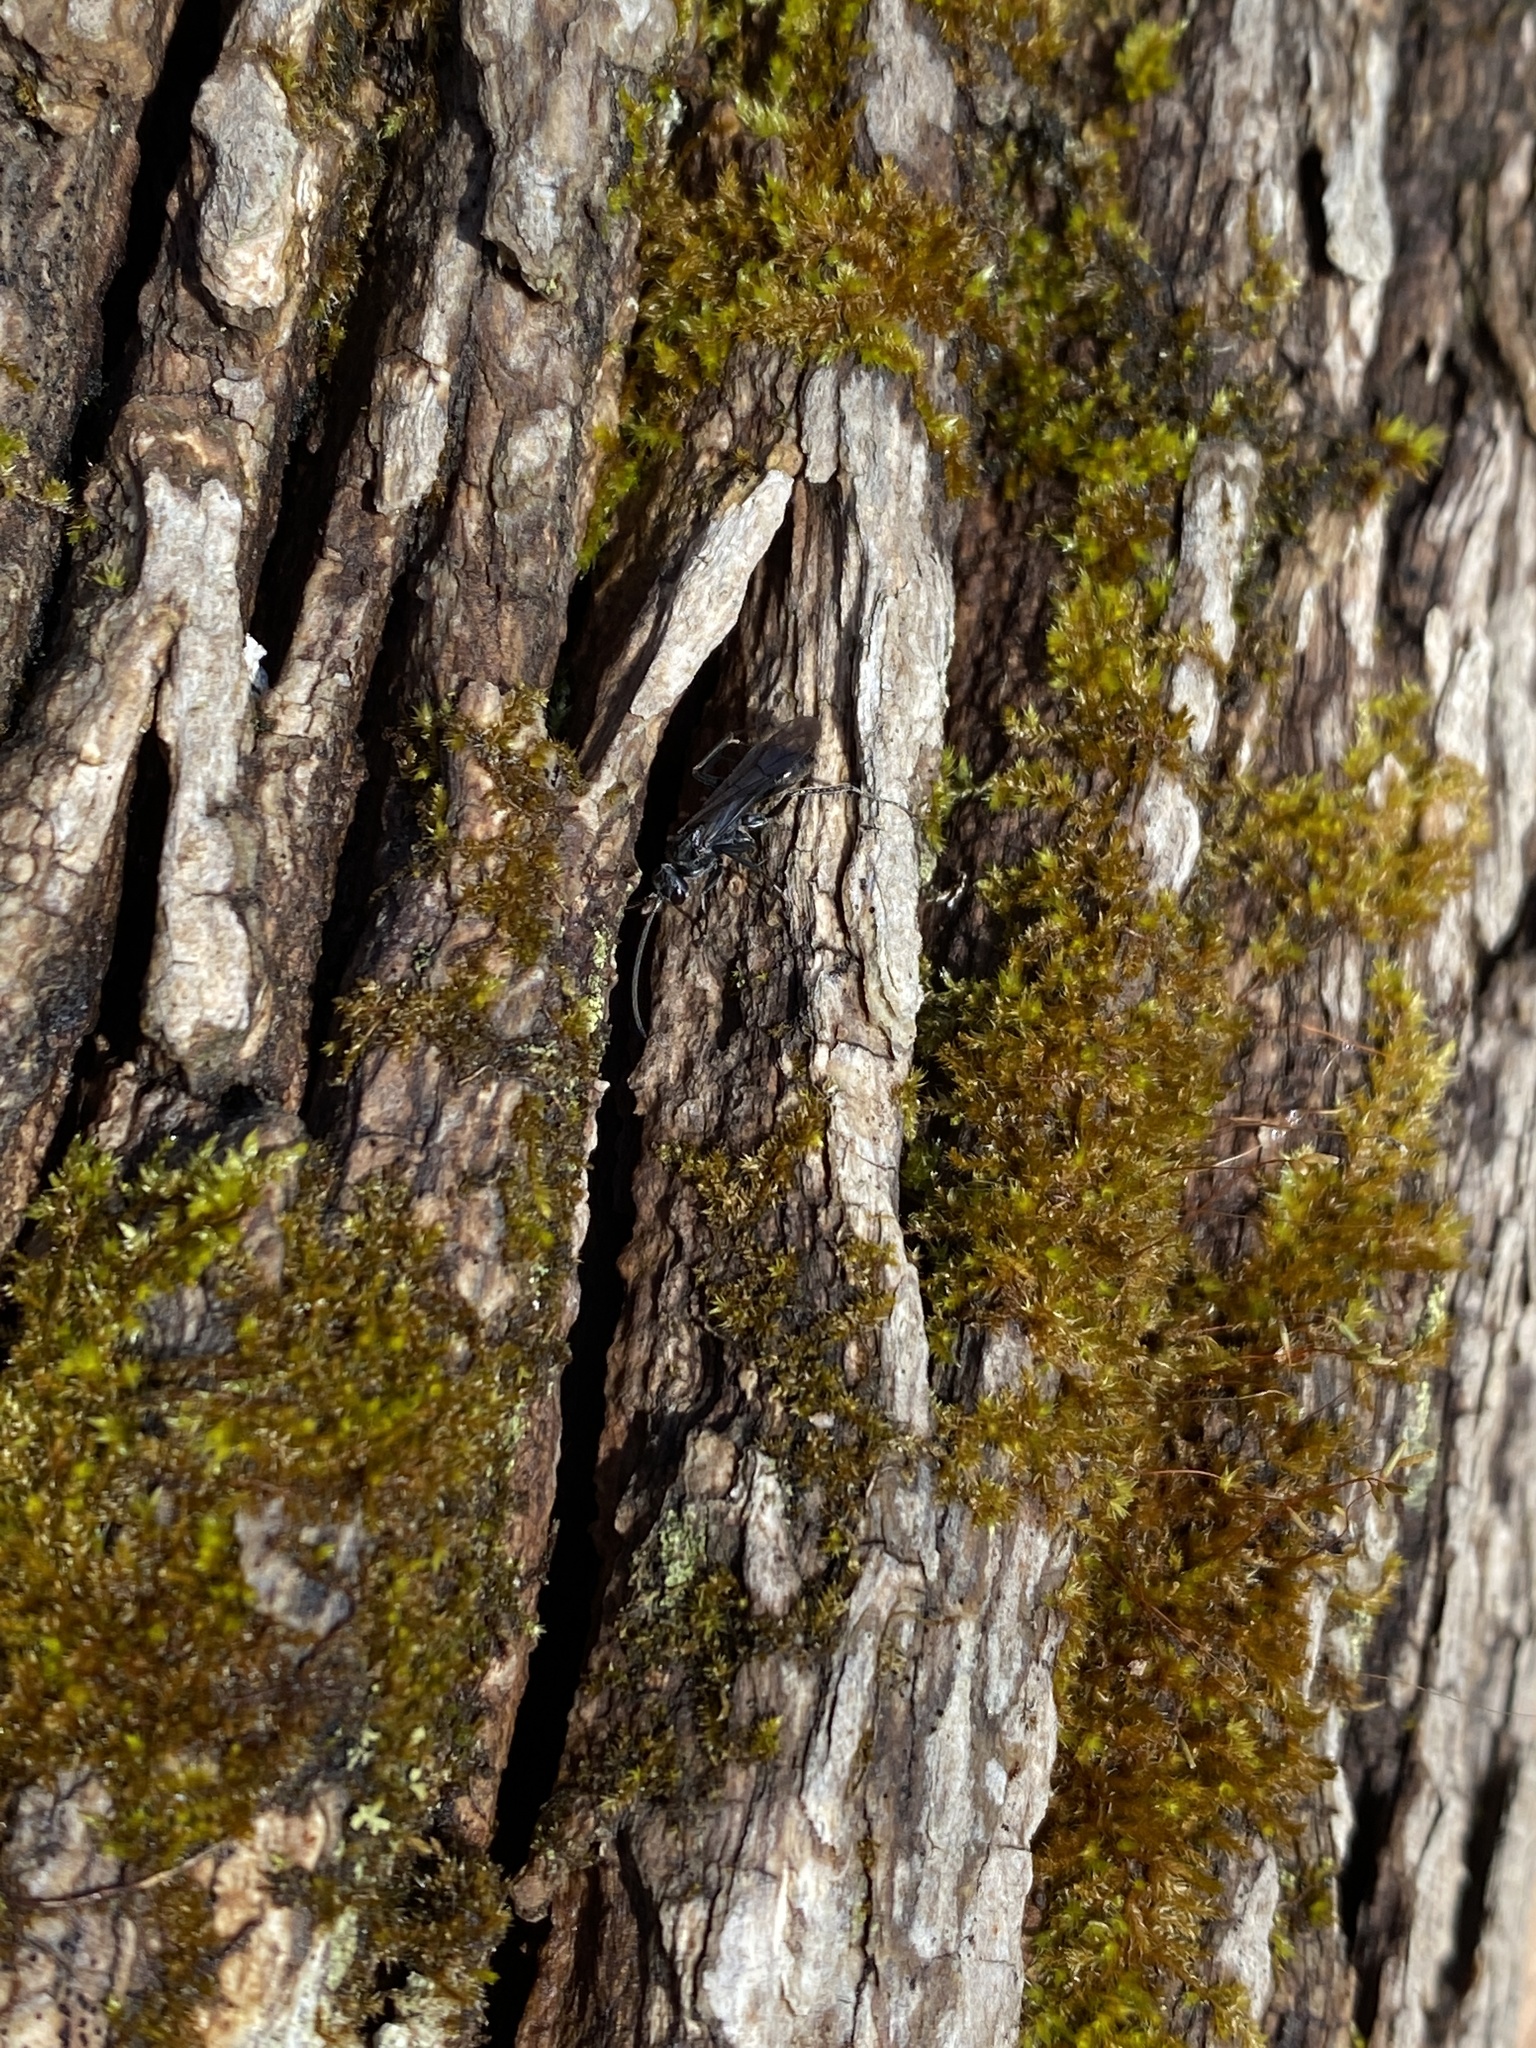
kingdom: Animalia
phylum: Arthropoda
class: Insecta
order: Hymenoptera
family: Pompilidae
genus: Priocnemis
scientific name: Priocnemis minorata
